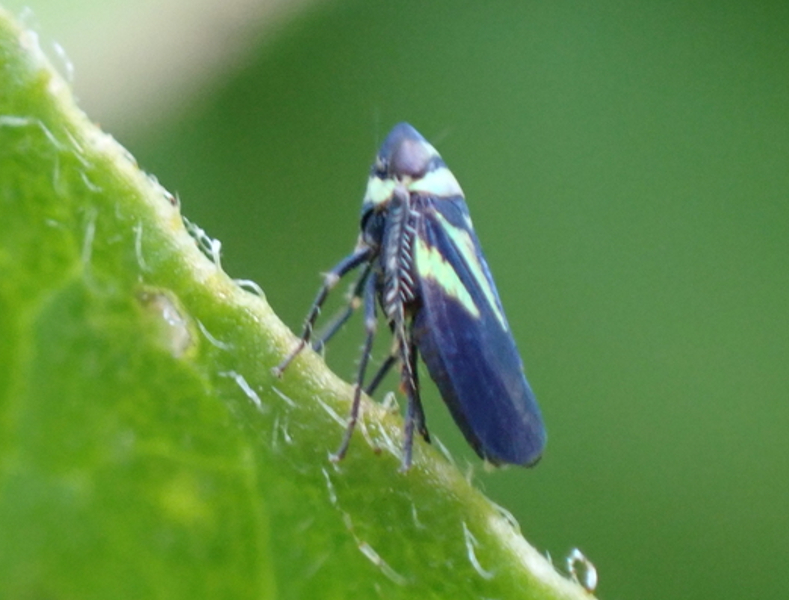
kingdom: Animalia
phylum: Arthropoda
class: Insecta
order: Hemiptera
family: Cicadellidae
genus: Stirellus
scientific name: Stirellus bicolor
